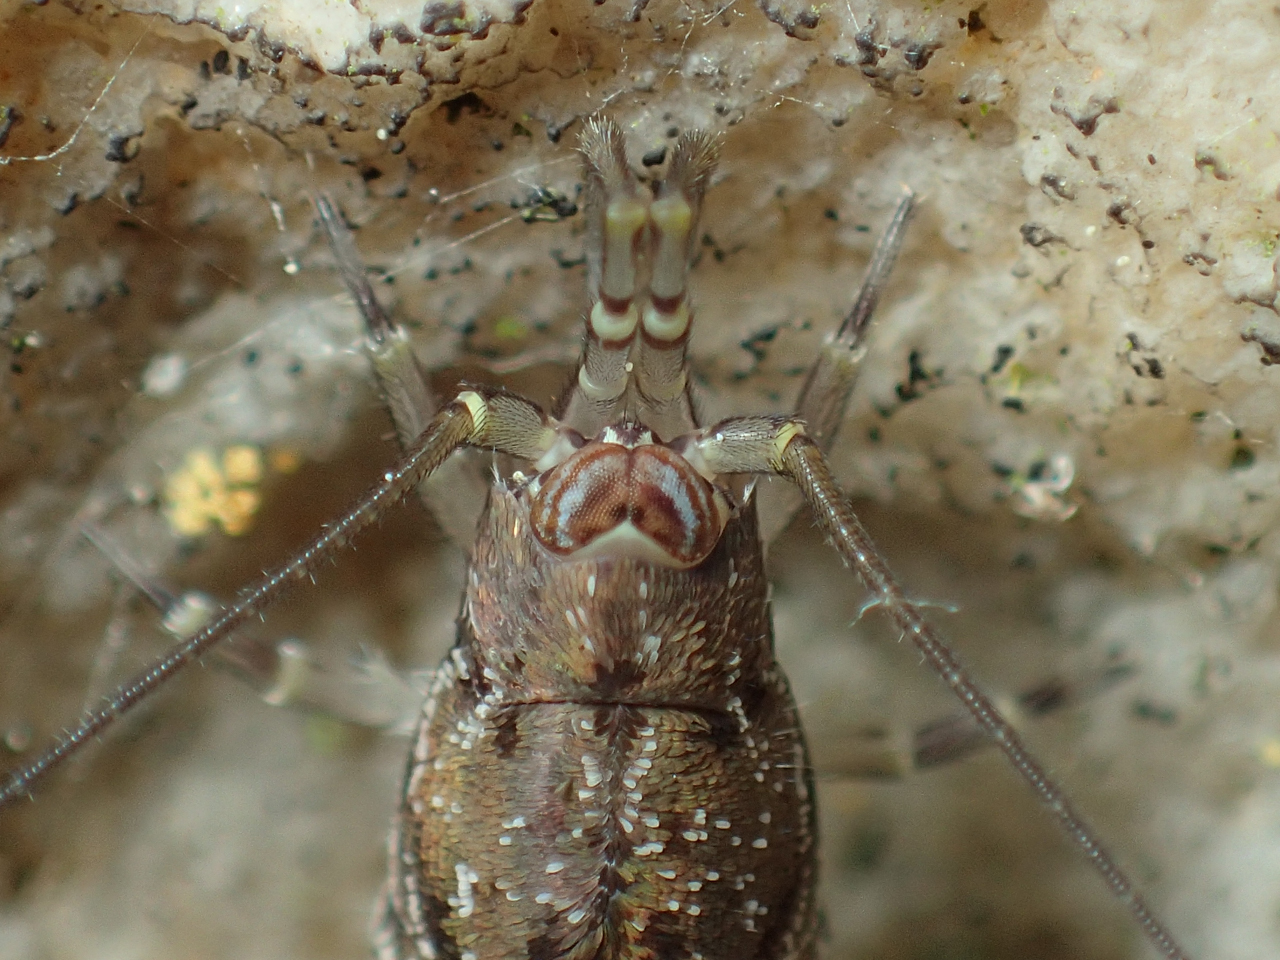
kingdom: Animalia
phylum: Arthropoda
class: Insecta
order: Archaeognatha
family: Meinertellidae
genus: Machiloides
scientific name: Machiloides banksi
